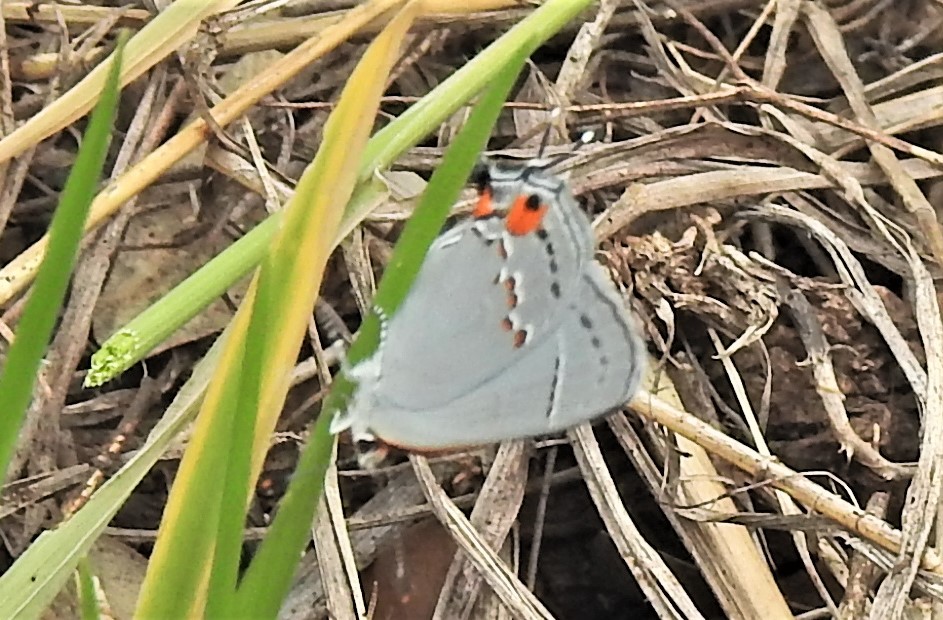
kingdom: Animalia
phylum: Arthropoda
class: Insecta
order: Lepidoptera
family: Lycaenidae
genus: Strymon
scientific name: Strymon melinus
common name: Gray hairstreak
